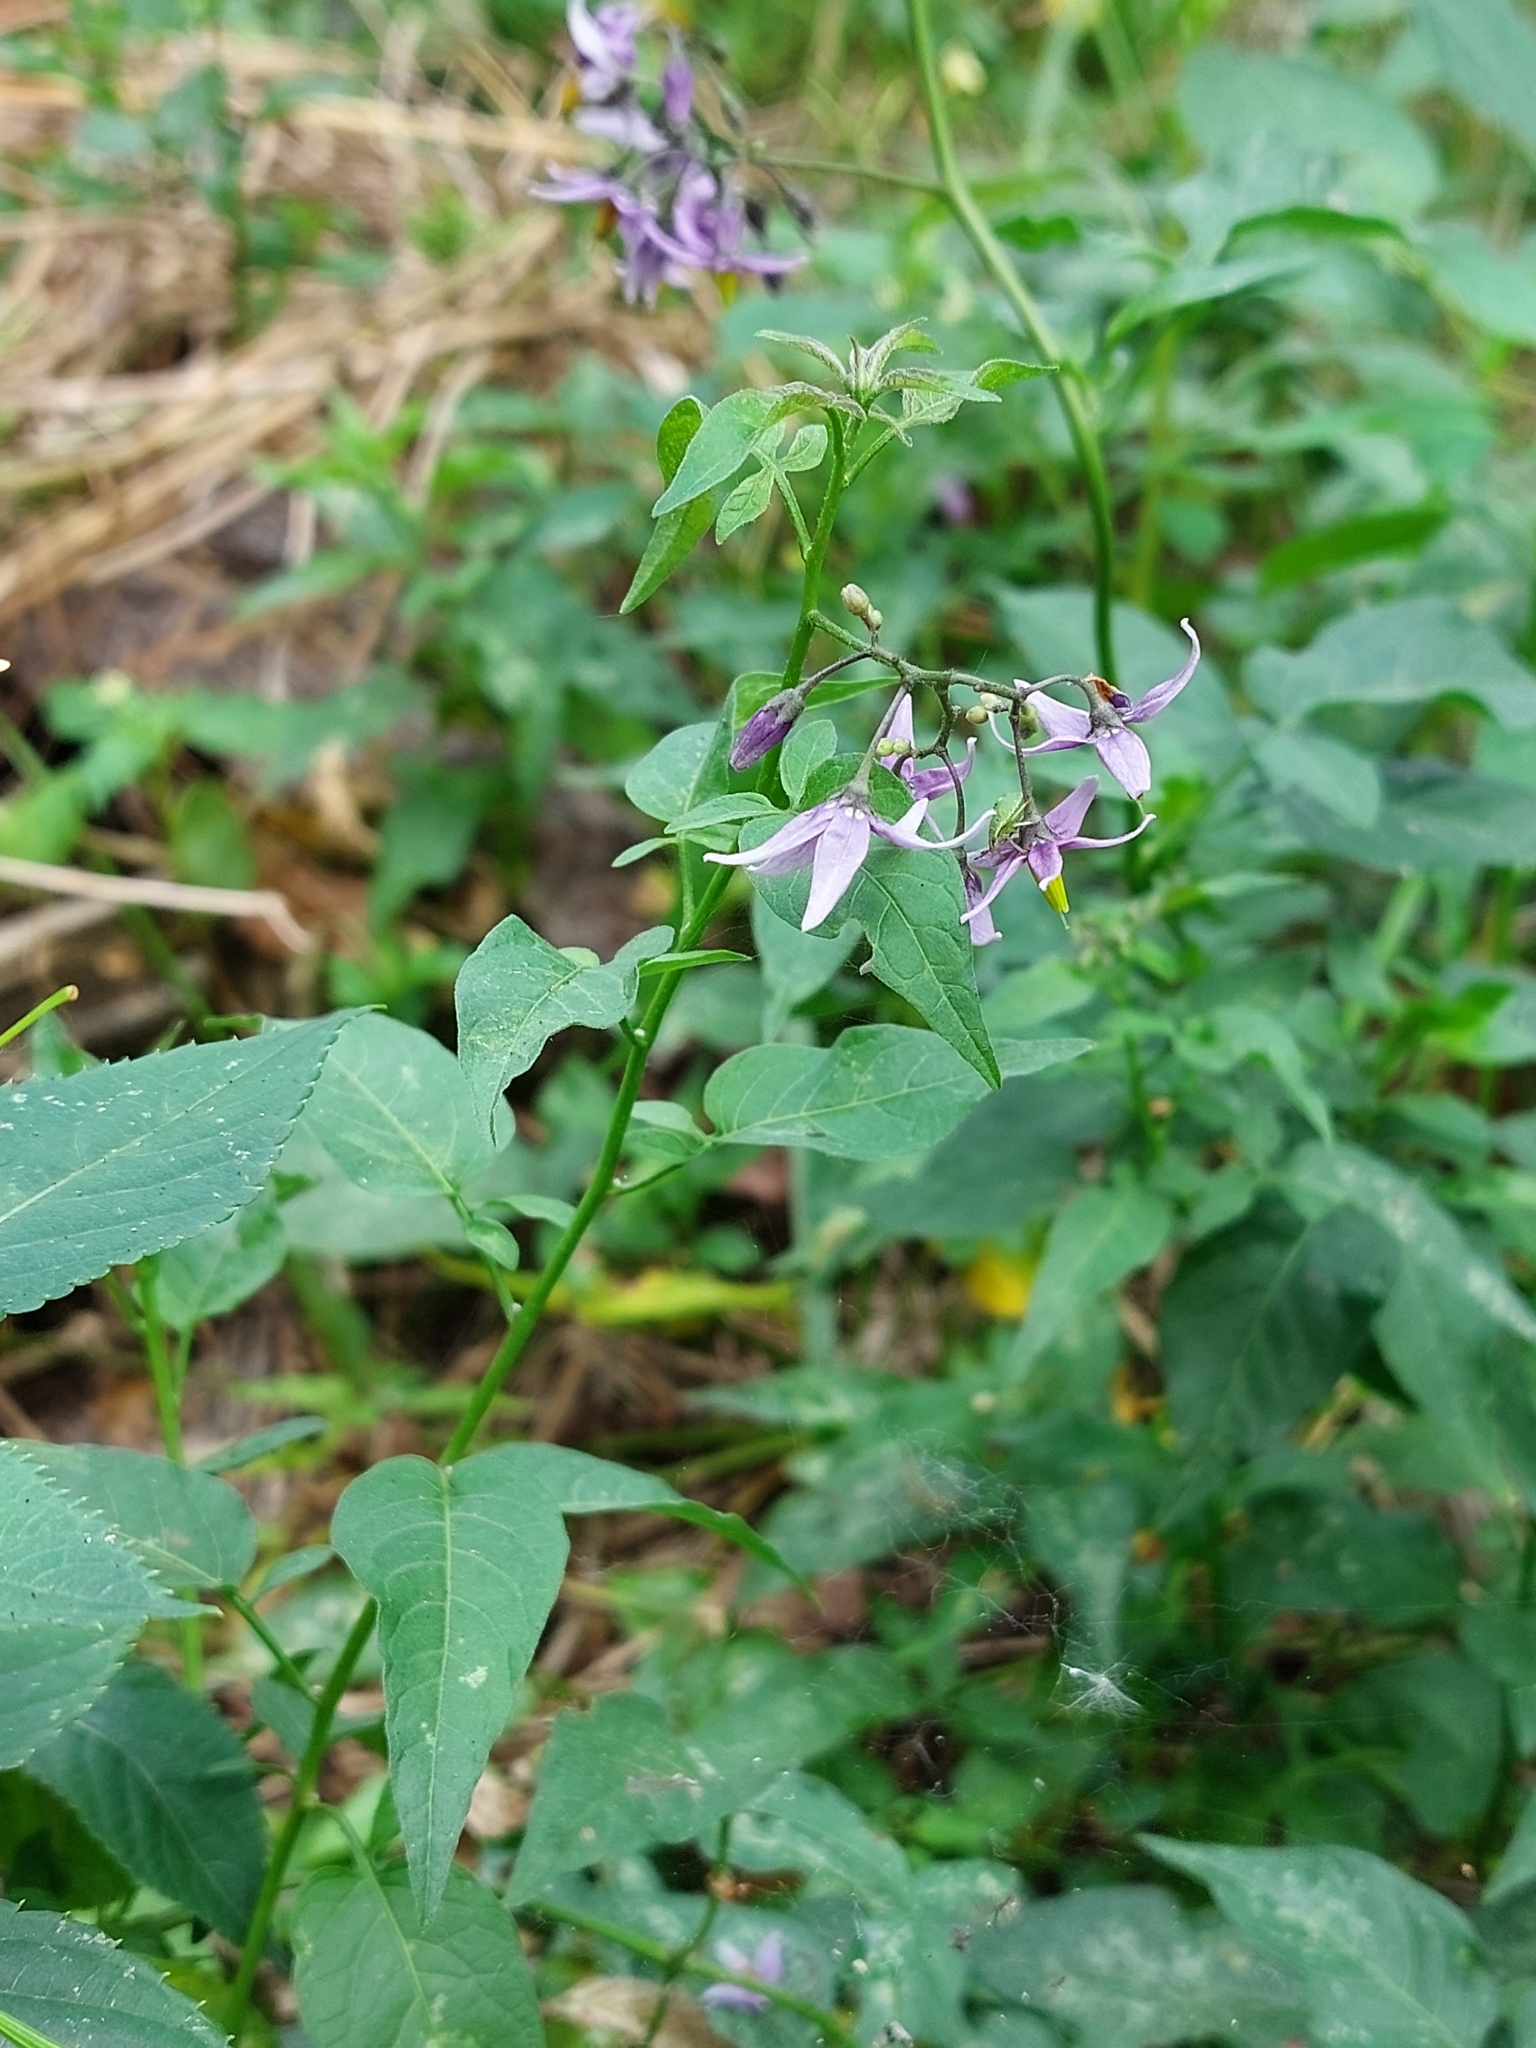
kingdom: Plantae
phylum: Tracheophyta
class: Magnoliopsida
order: Solanales
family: Solanaceae
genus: Solanum
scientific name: Solanum dulcamara
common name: Climbing nightshade
